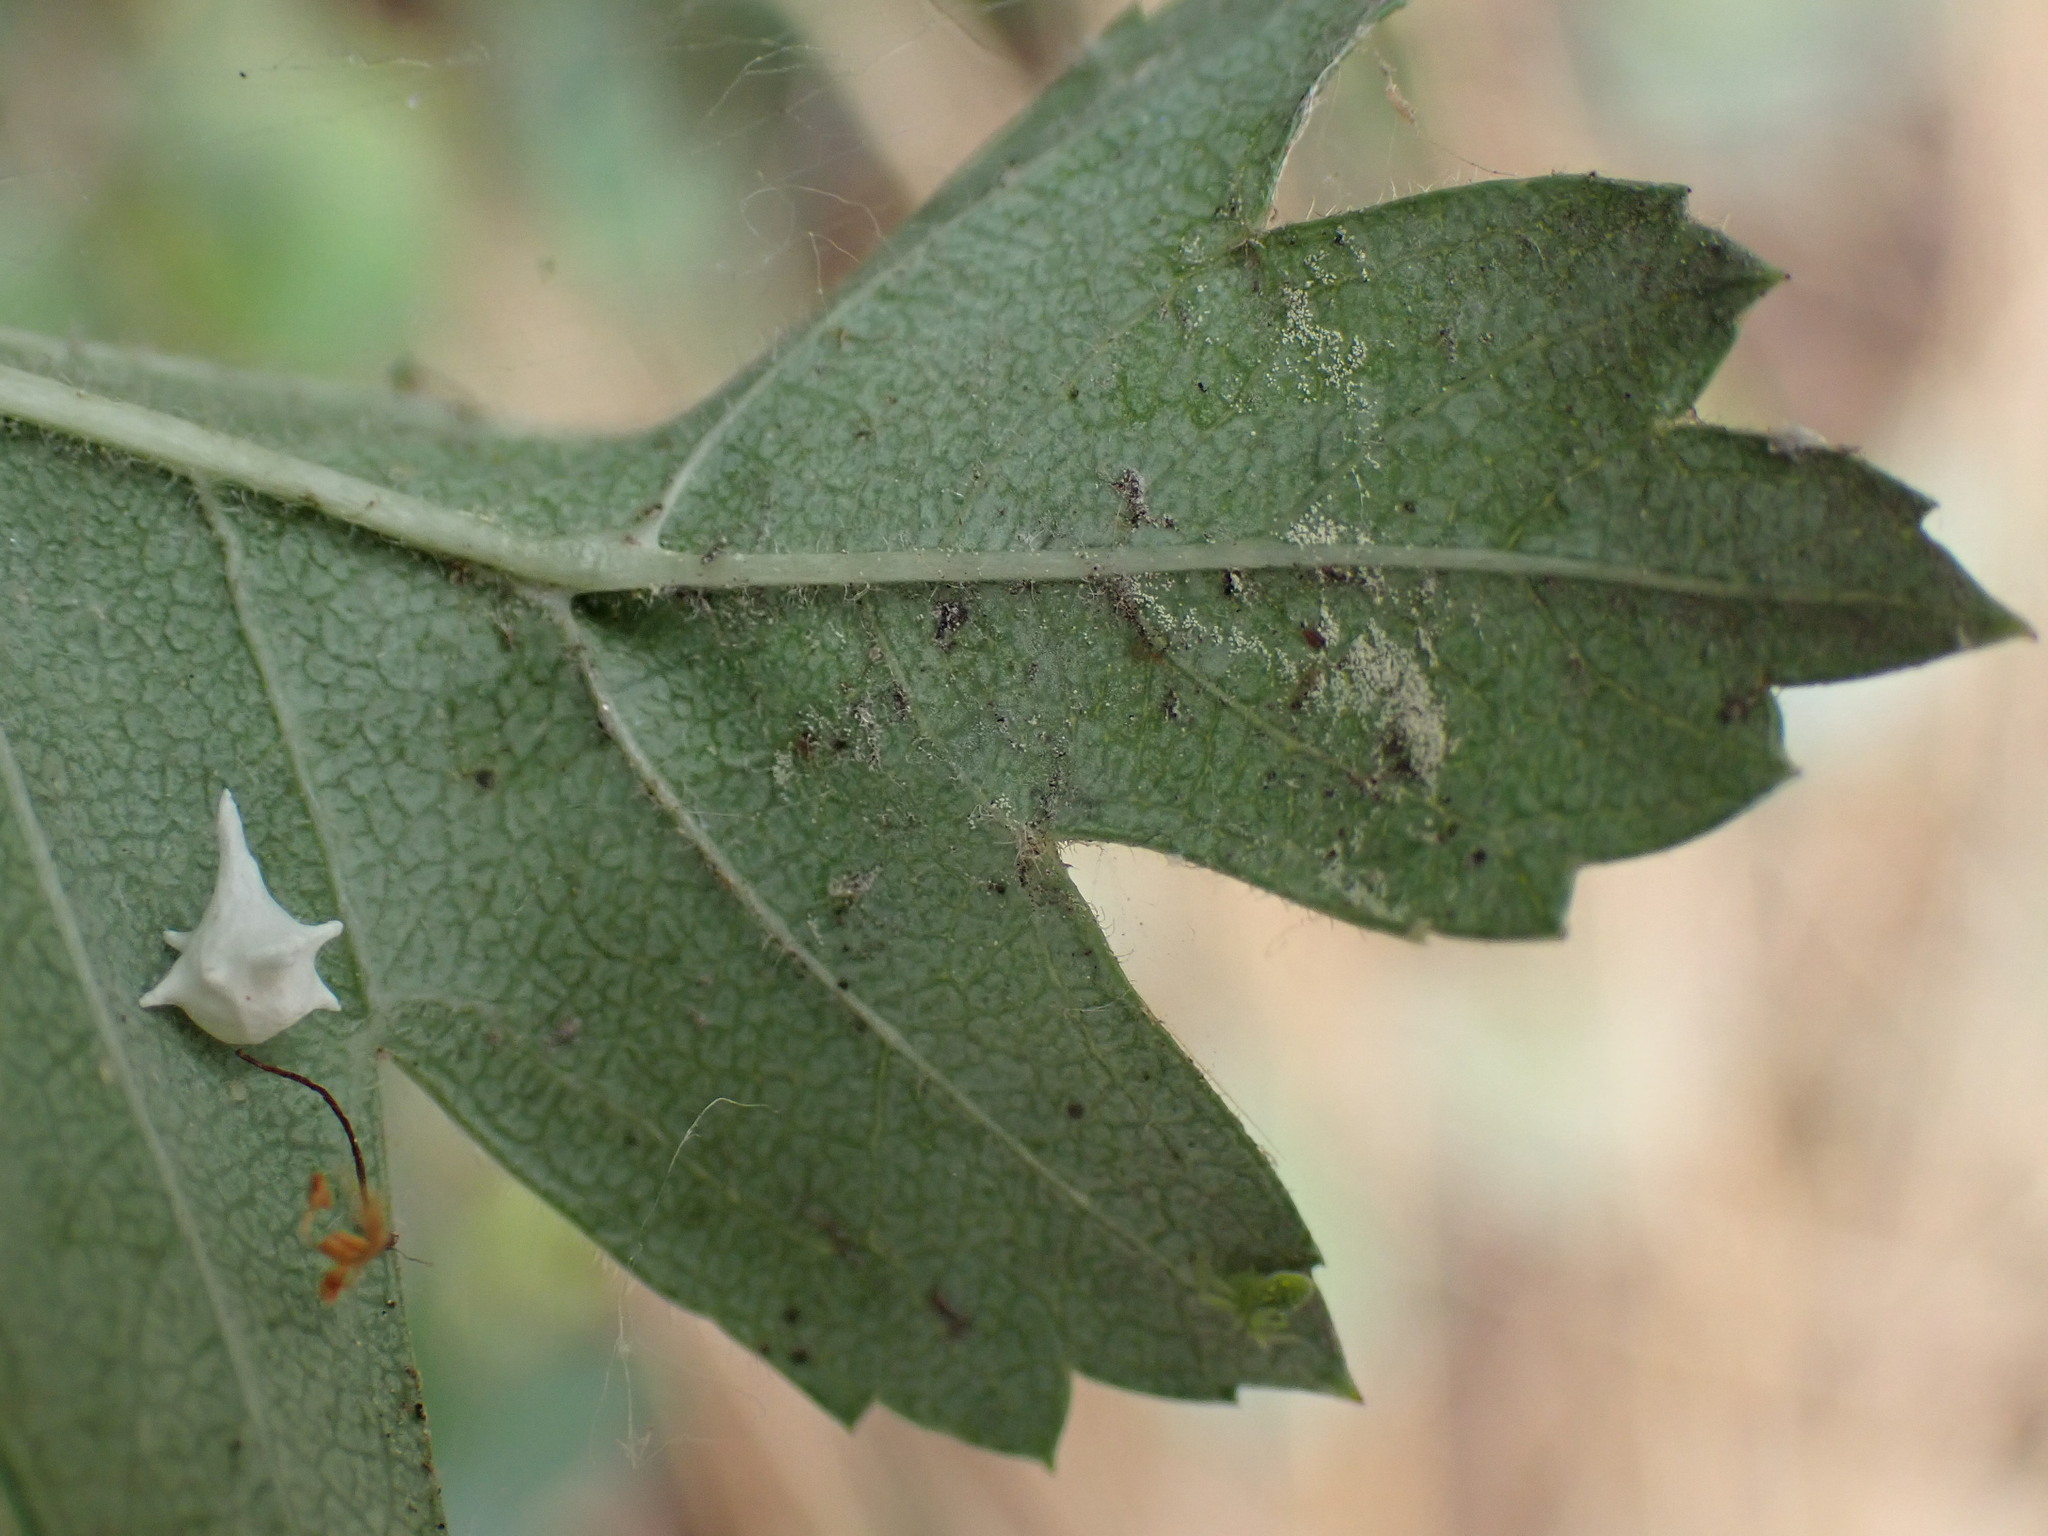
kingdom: Animalia
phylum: Arthropoda
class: Arachnida
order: Araneae
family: Theridiidae
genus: Paidiscura
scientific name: Paidiscura pallens
